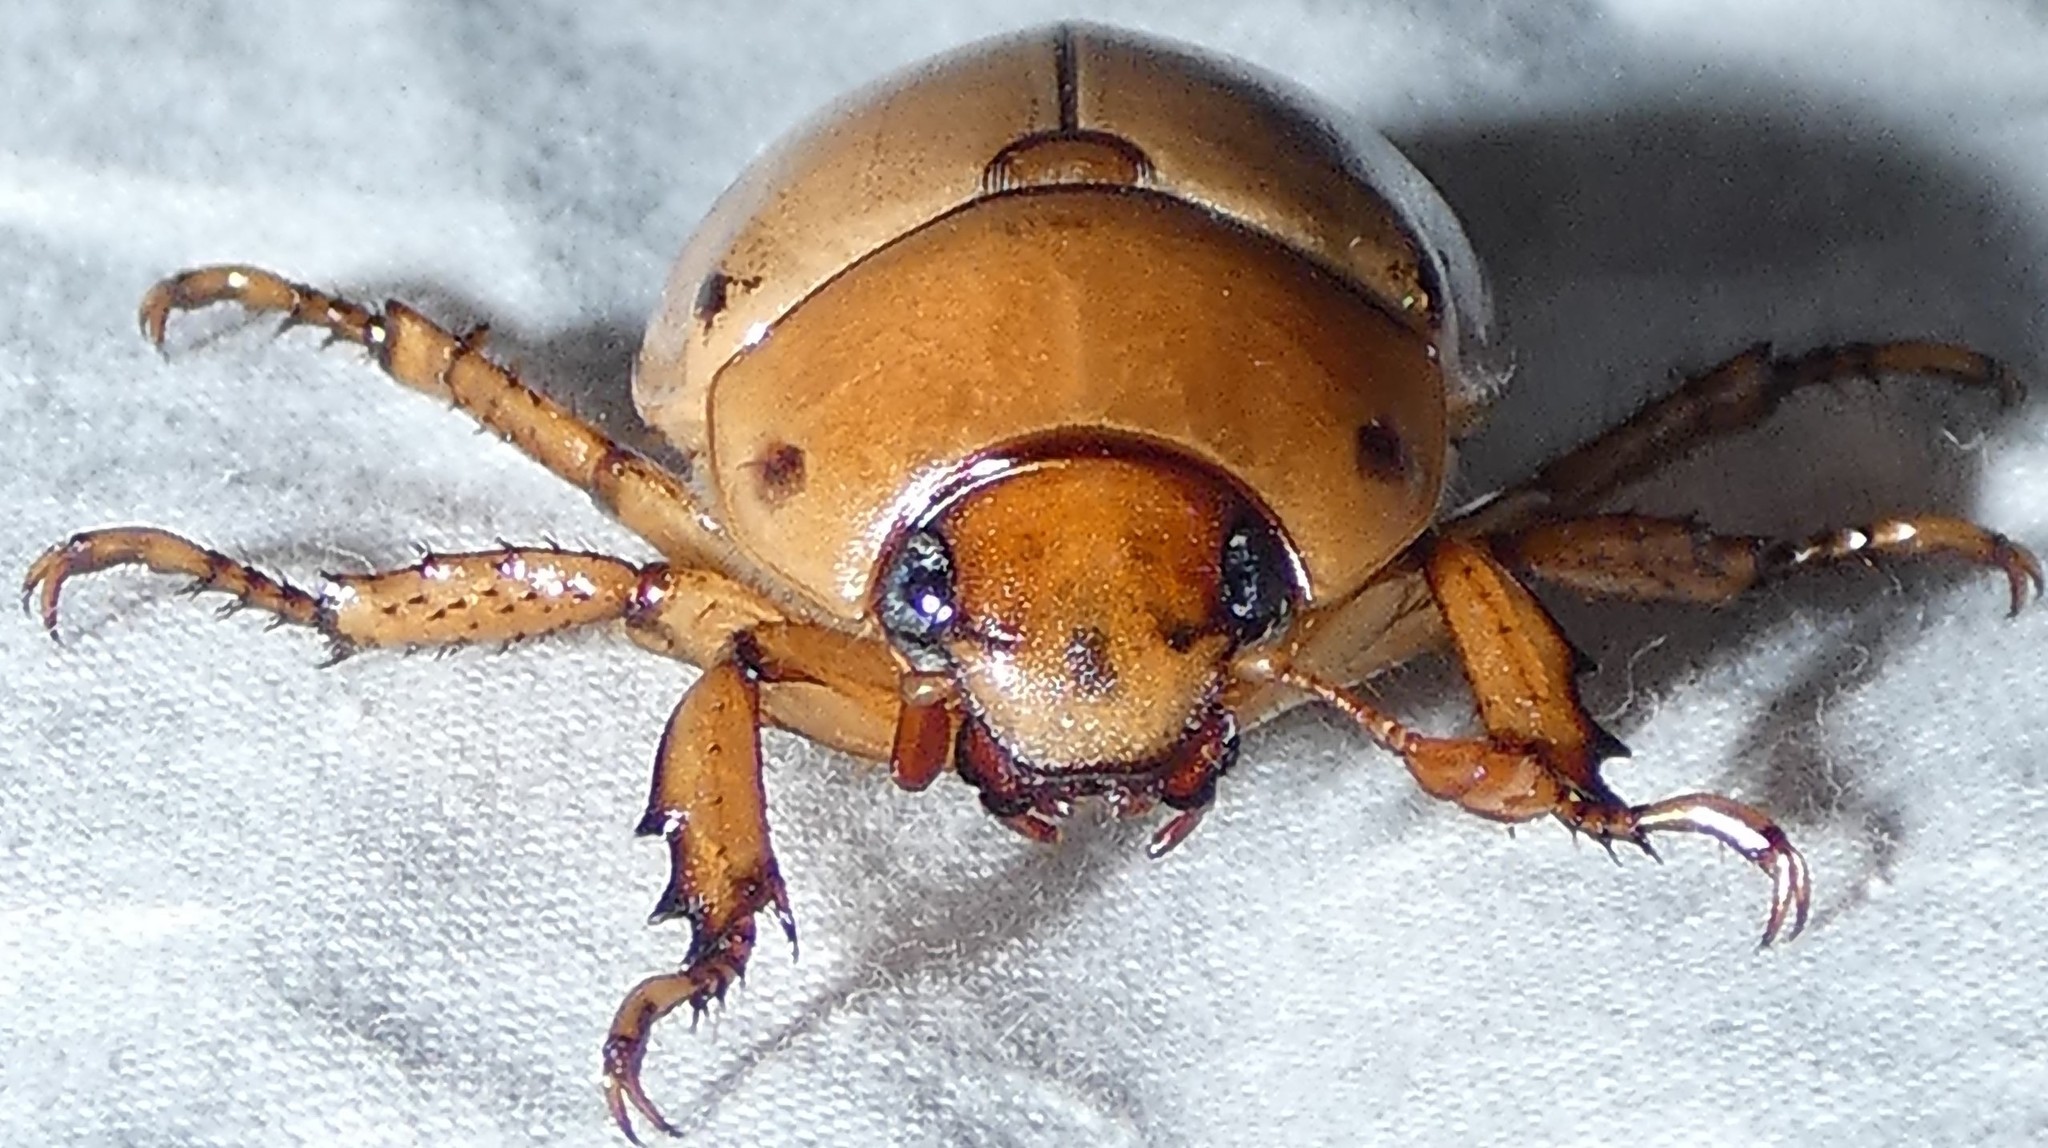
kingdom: Animalia
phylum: Arthropoda
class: Insecta
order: Coleoptera
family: Scarabaeidae
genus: Pelidnota
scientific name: Pelidnota punctata
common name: Grapevine beetle
